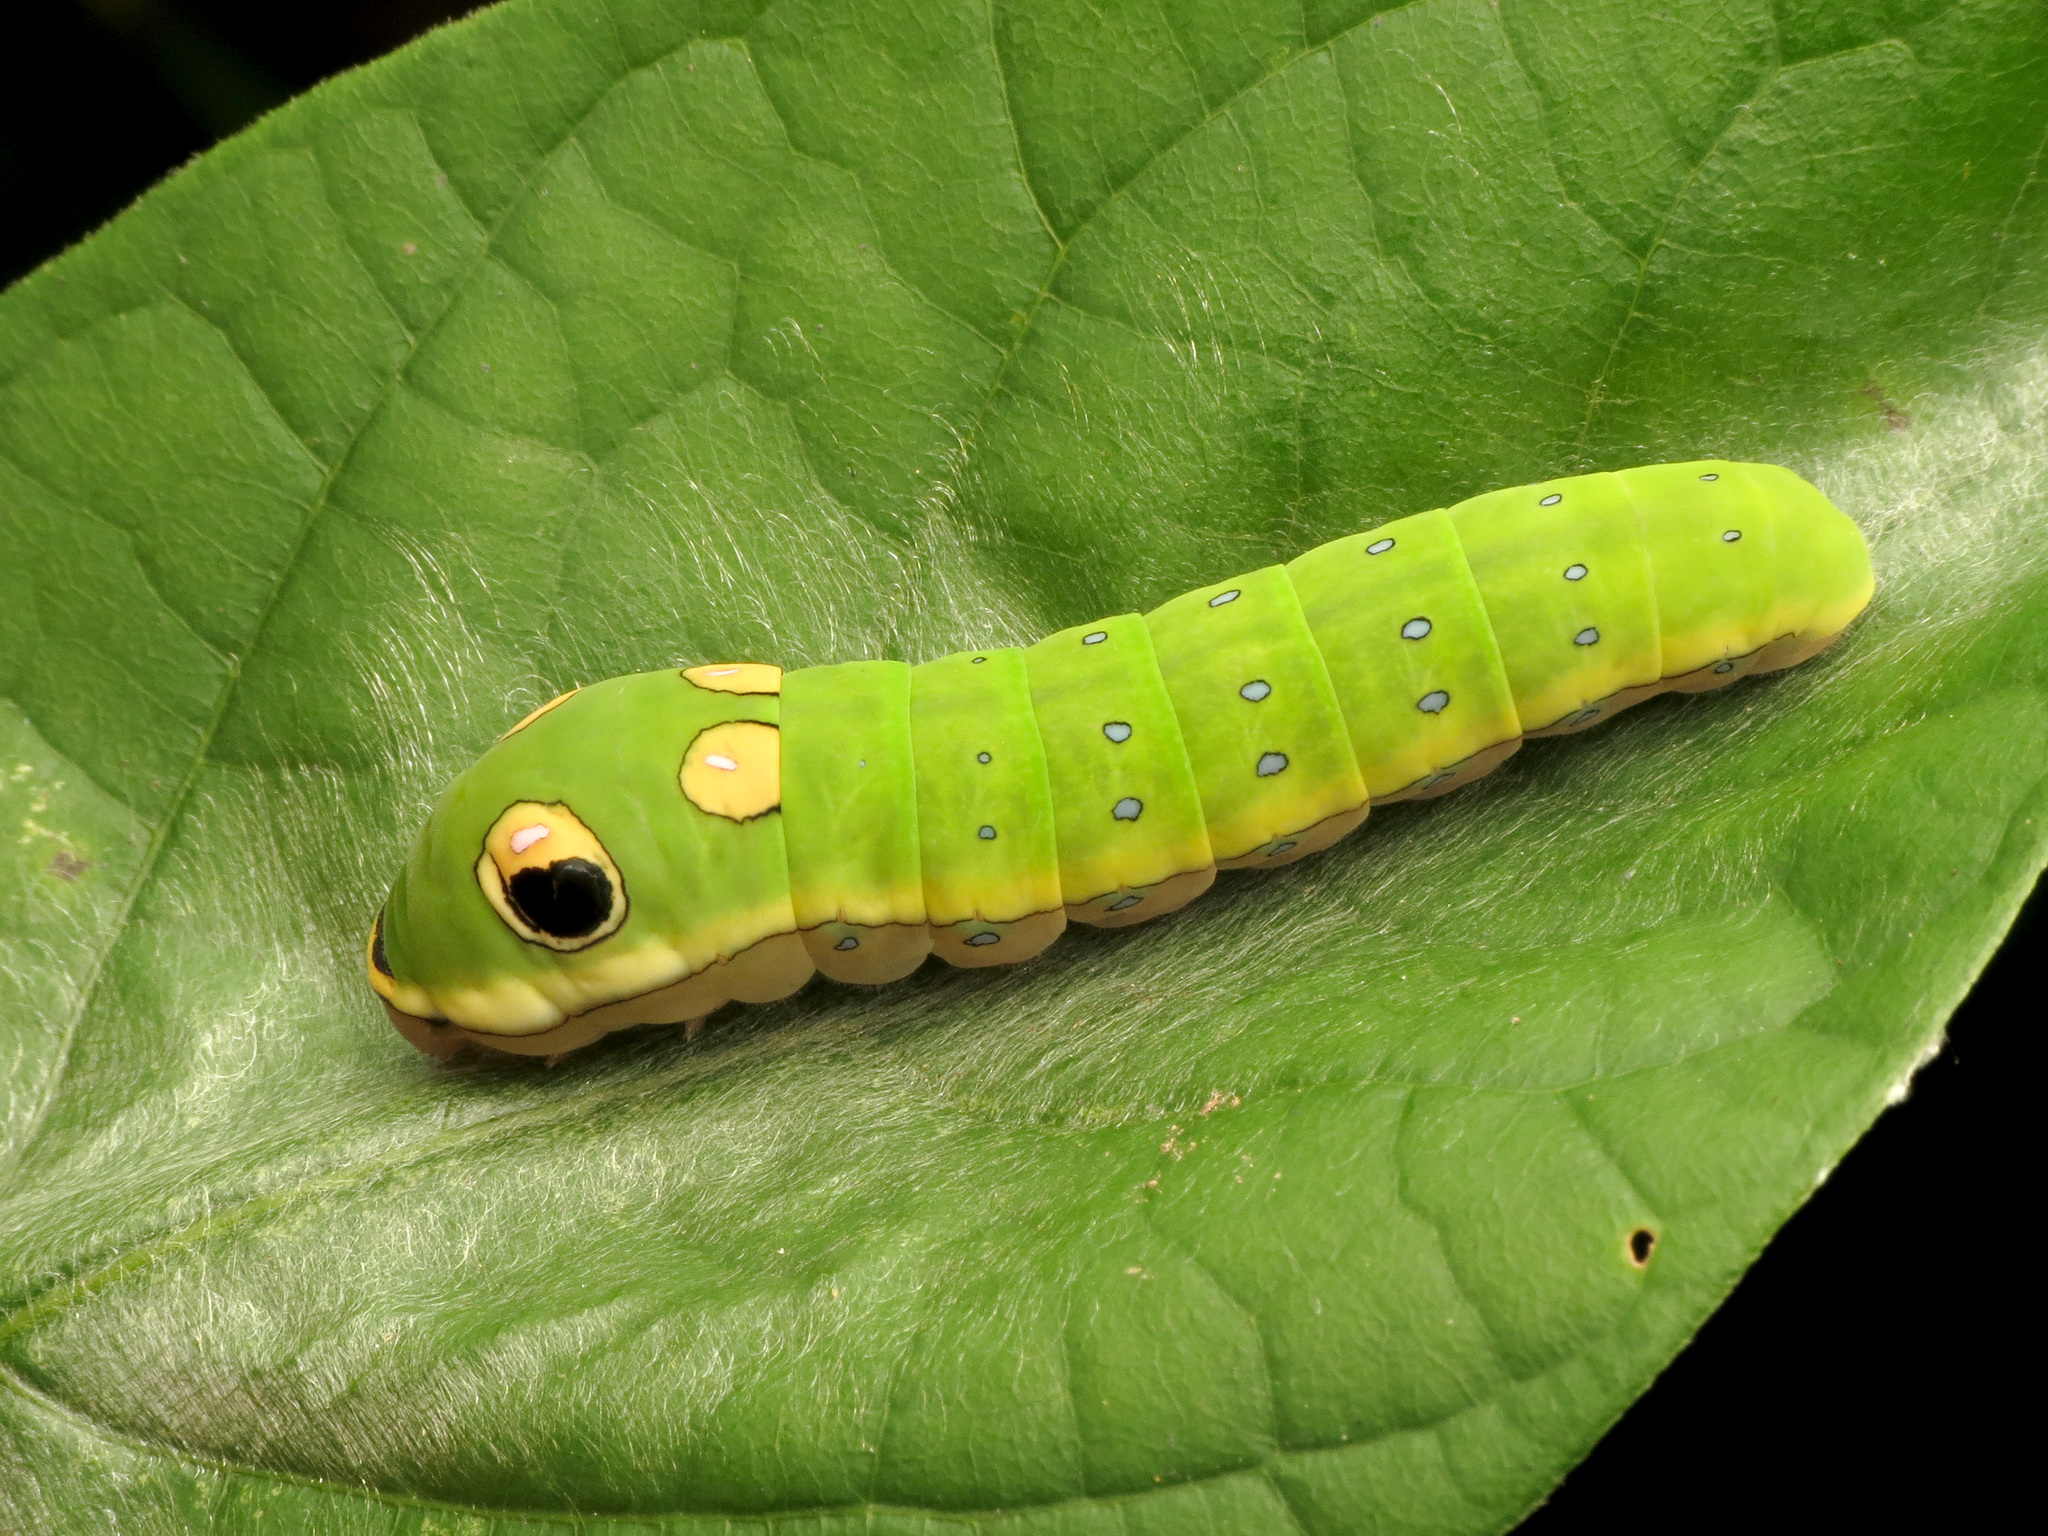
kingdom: Animalia
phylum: Arthropoda
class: Insecta
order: Lepidoptera
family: Papilionidae
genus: Papilio
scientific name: Papilio troilus
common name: Spicebush swallowtail
